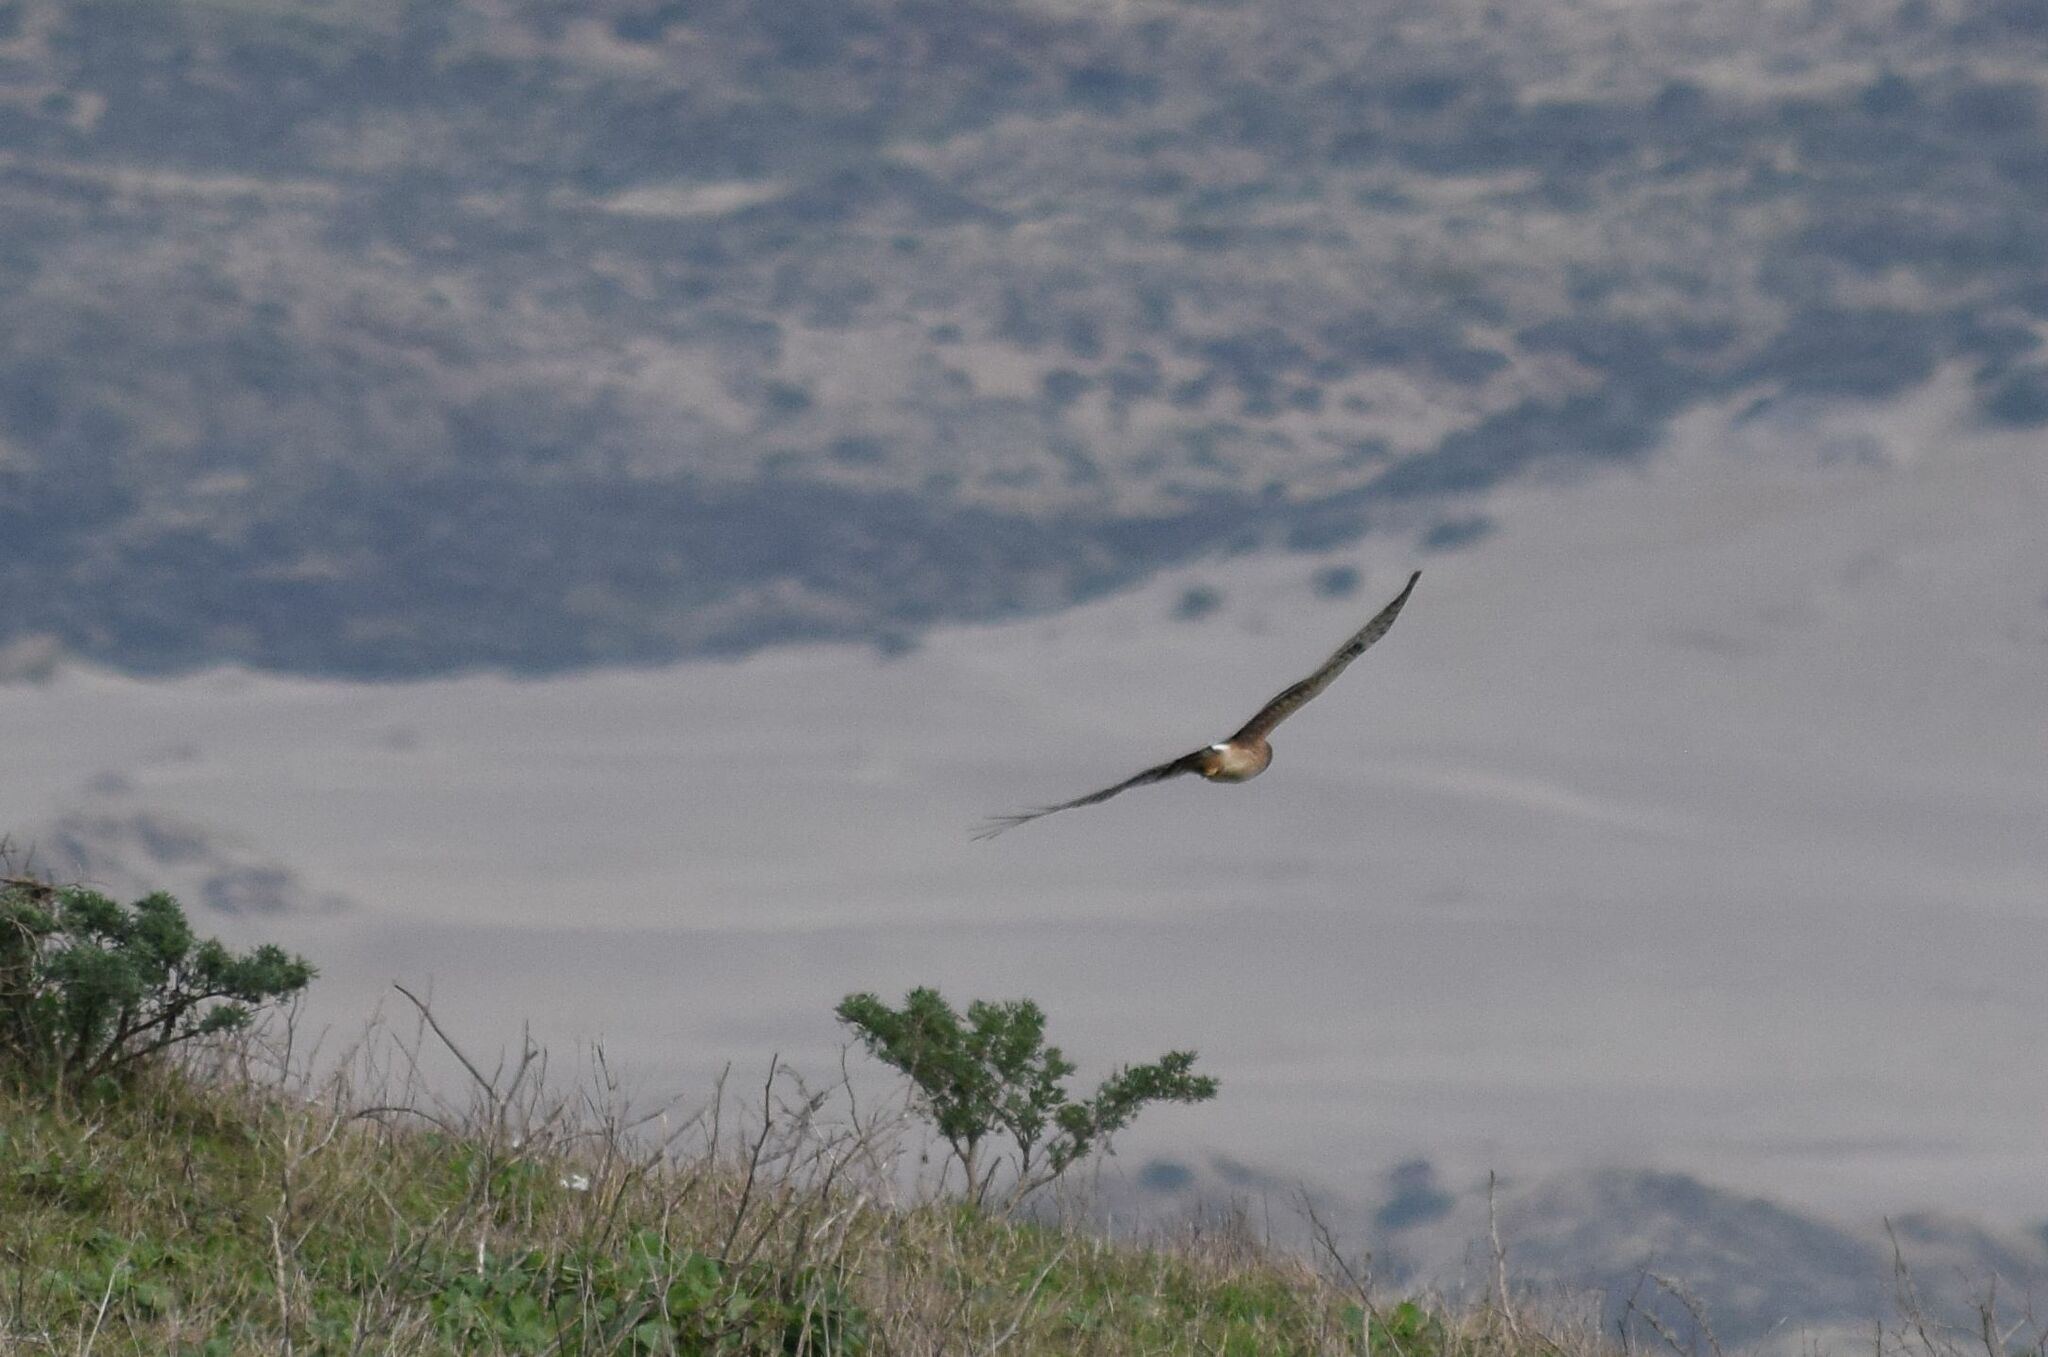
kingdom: Animalia
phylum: Chordata
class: Aves
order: Accipitriformes
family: Accipitridae
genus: Circus
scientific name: Circus cyaneus
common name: Hen harrier
